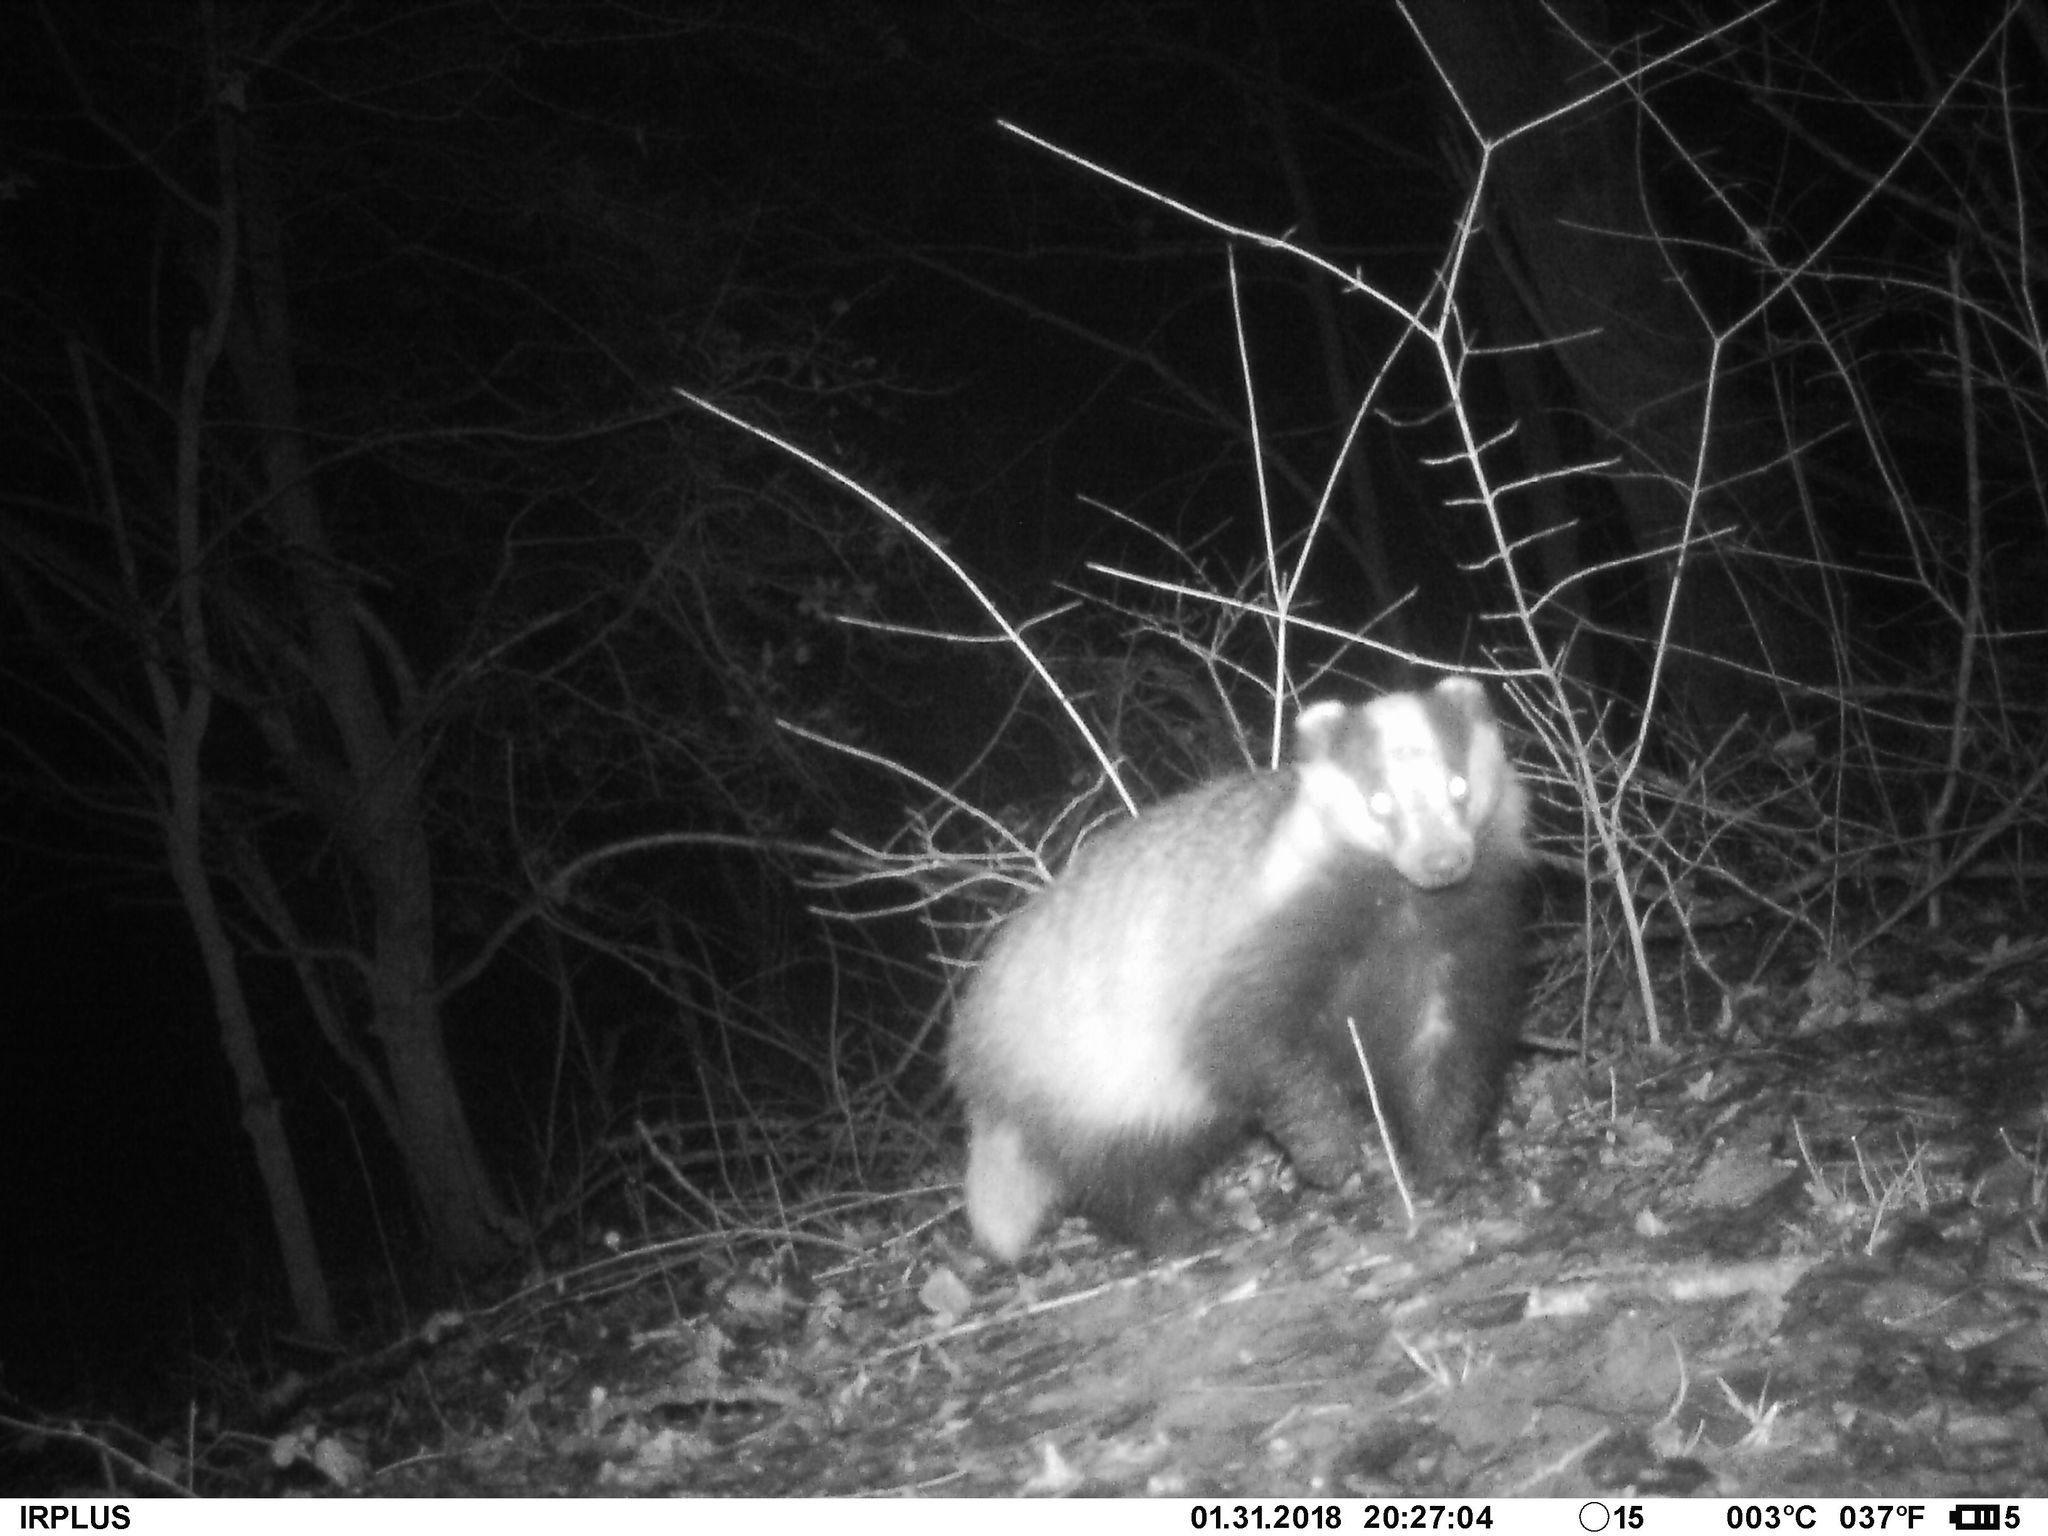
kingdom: Animalia
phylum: Chordata
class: Mammalia
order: Carnivora
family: Mustelidae
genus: Meles
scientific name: Meles meles
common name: Eurasian badger
